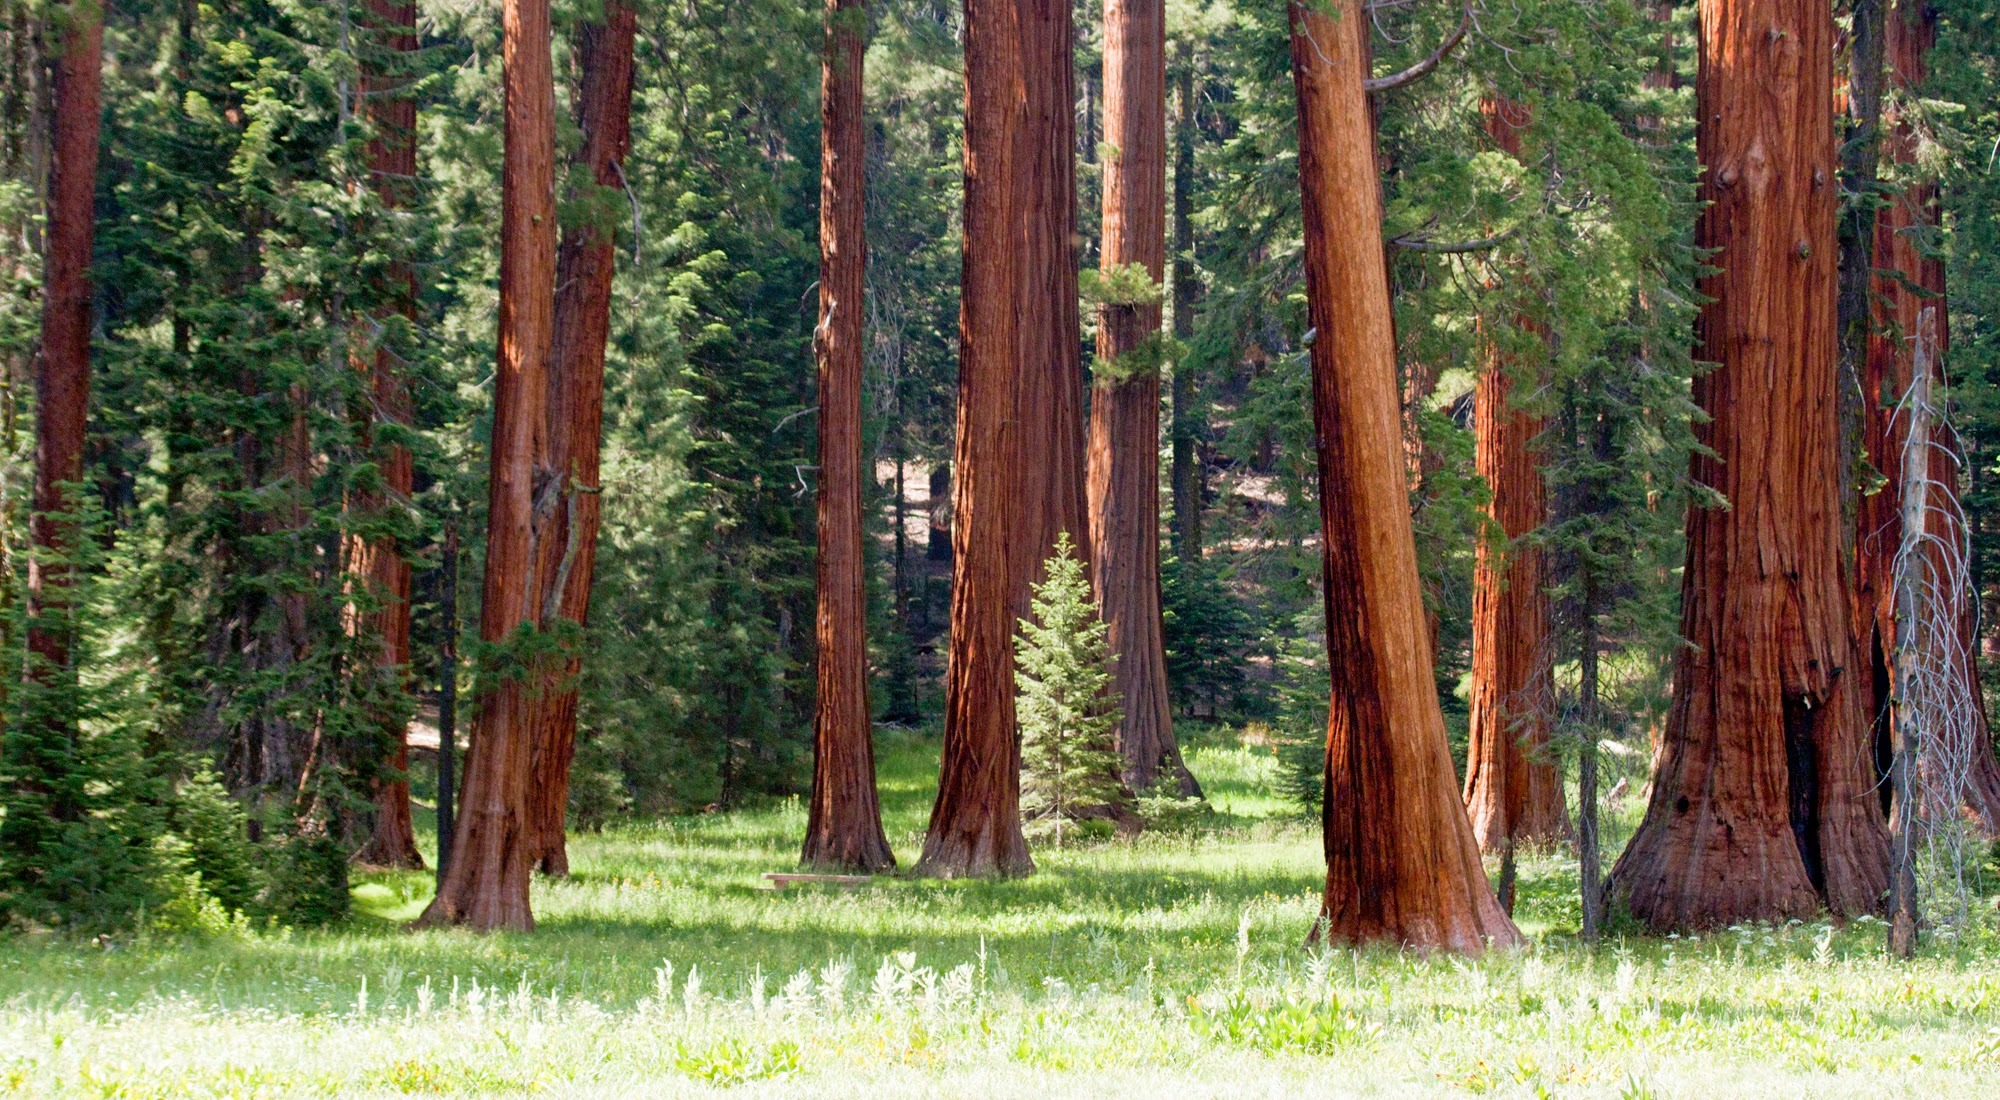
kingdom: Plantae
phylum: Tracheophyta
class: Pinopsida
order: Pinales
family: Cupressaceae
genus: Sequoiadendron
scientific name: Sequoiadendron giganteum
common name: Wellingtonia
